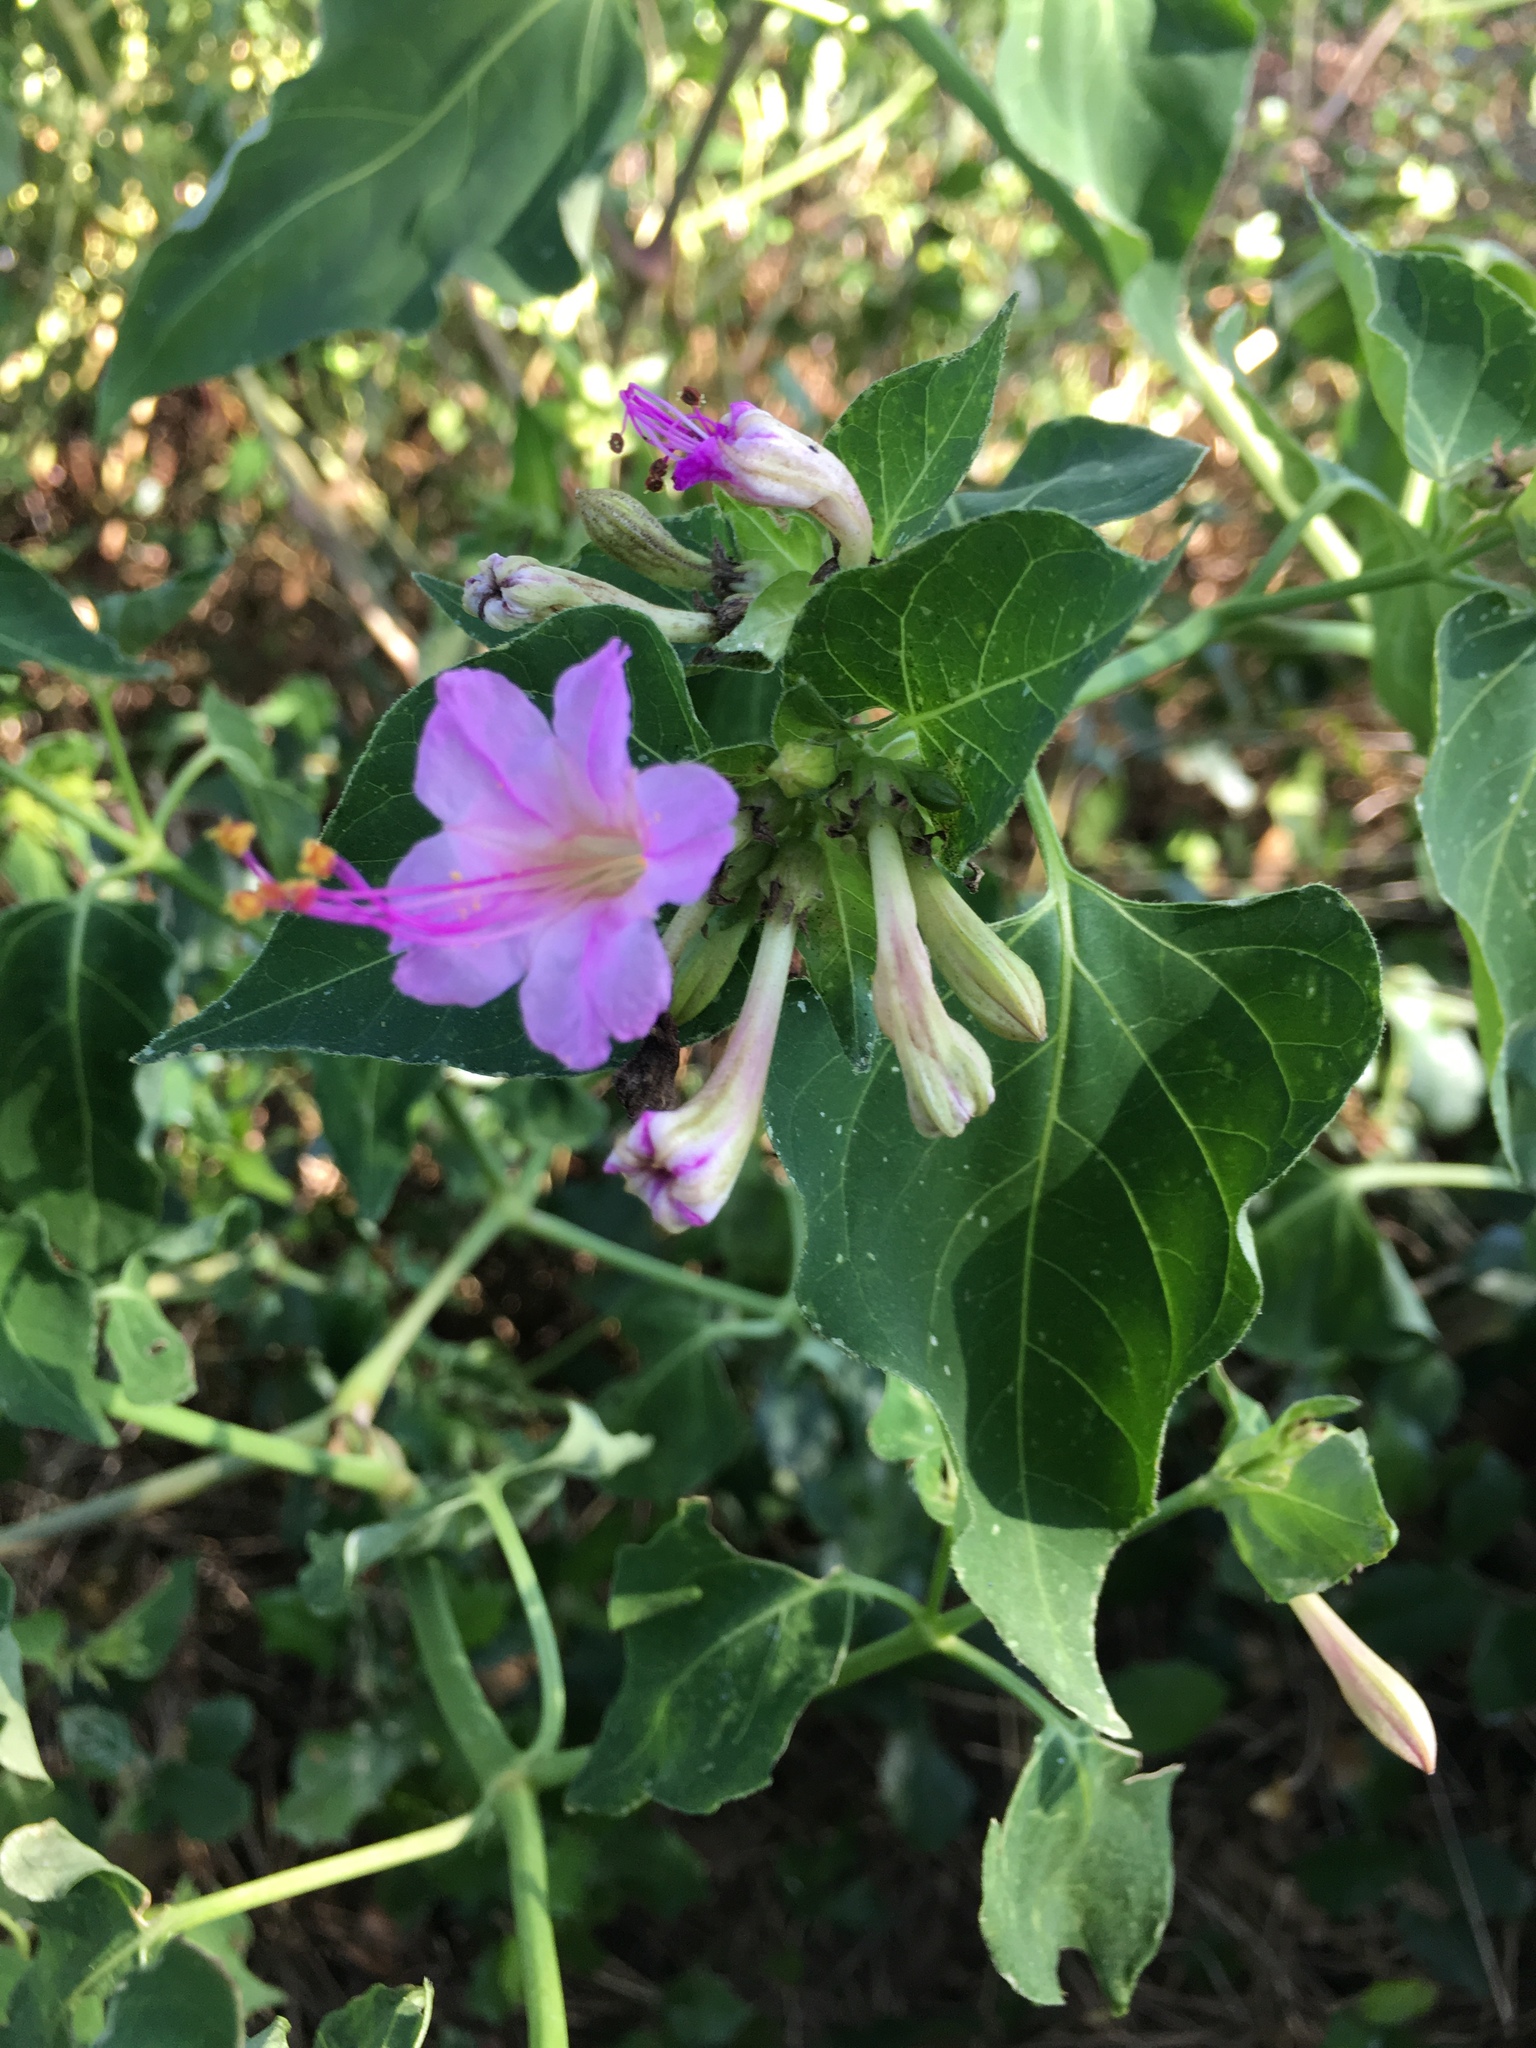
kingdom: Plantae
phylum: Tracheophyta
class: Magnoliopsida
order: Caryophyllales
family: Nyctaginaceae
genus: Mirabilis
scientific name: Mirabilis jalapa
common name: Marvel-of-peru
